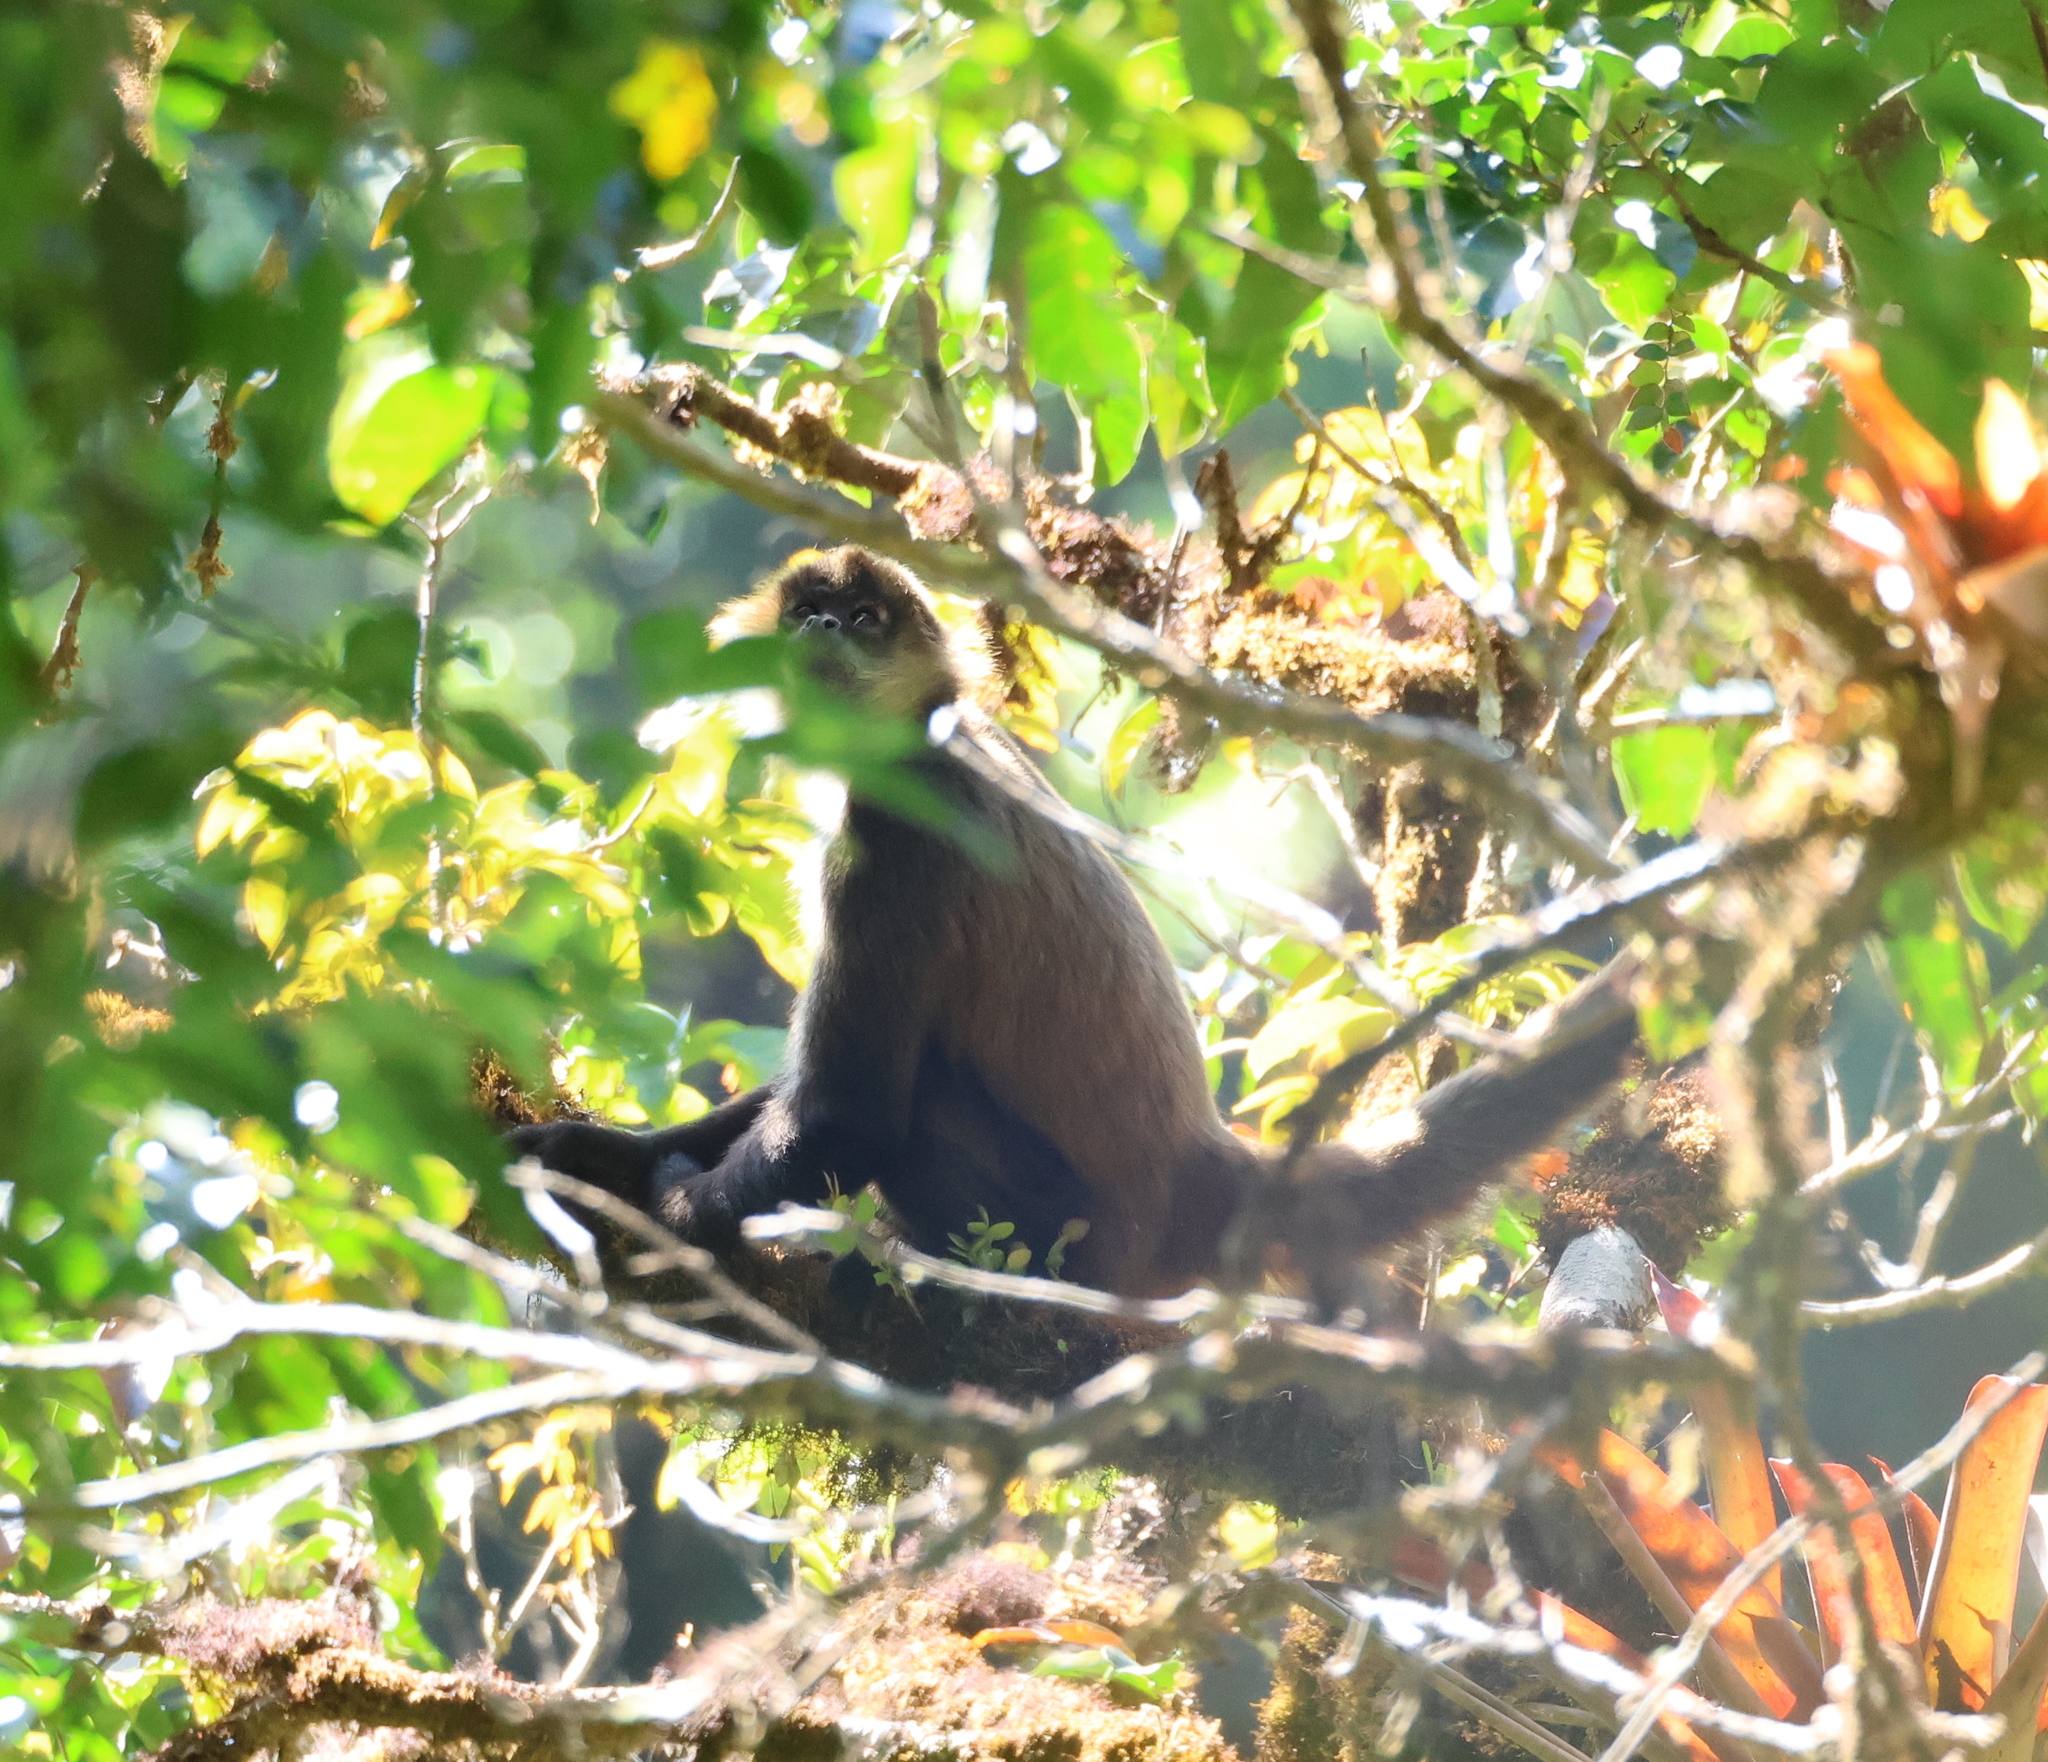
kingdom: Animalia
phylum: Chordata
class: Mammalia
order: Primates
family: Atelidae
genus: Ateles
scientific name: Ateles geoffroyi
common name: Black-handed spider monkey
